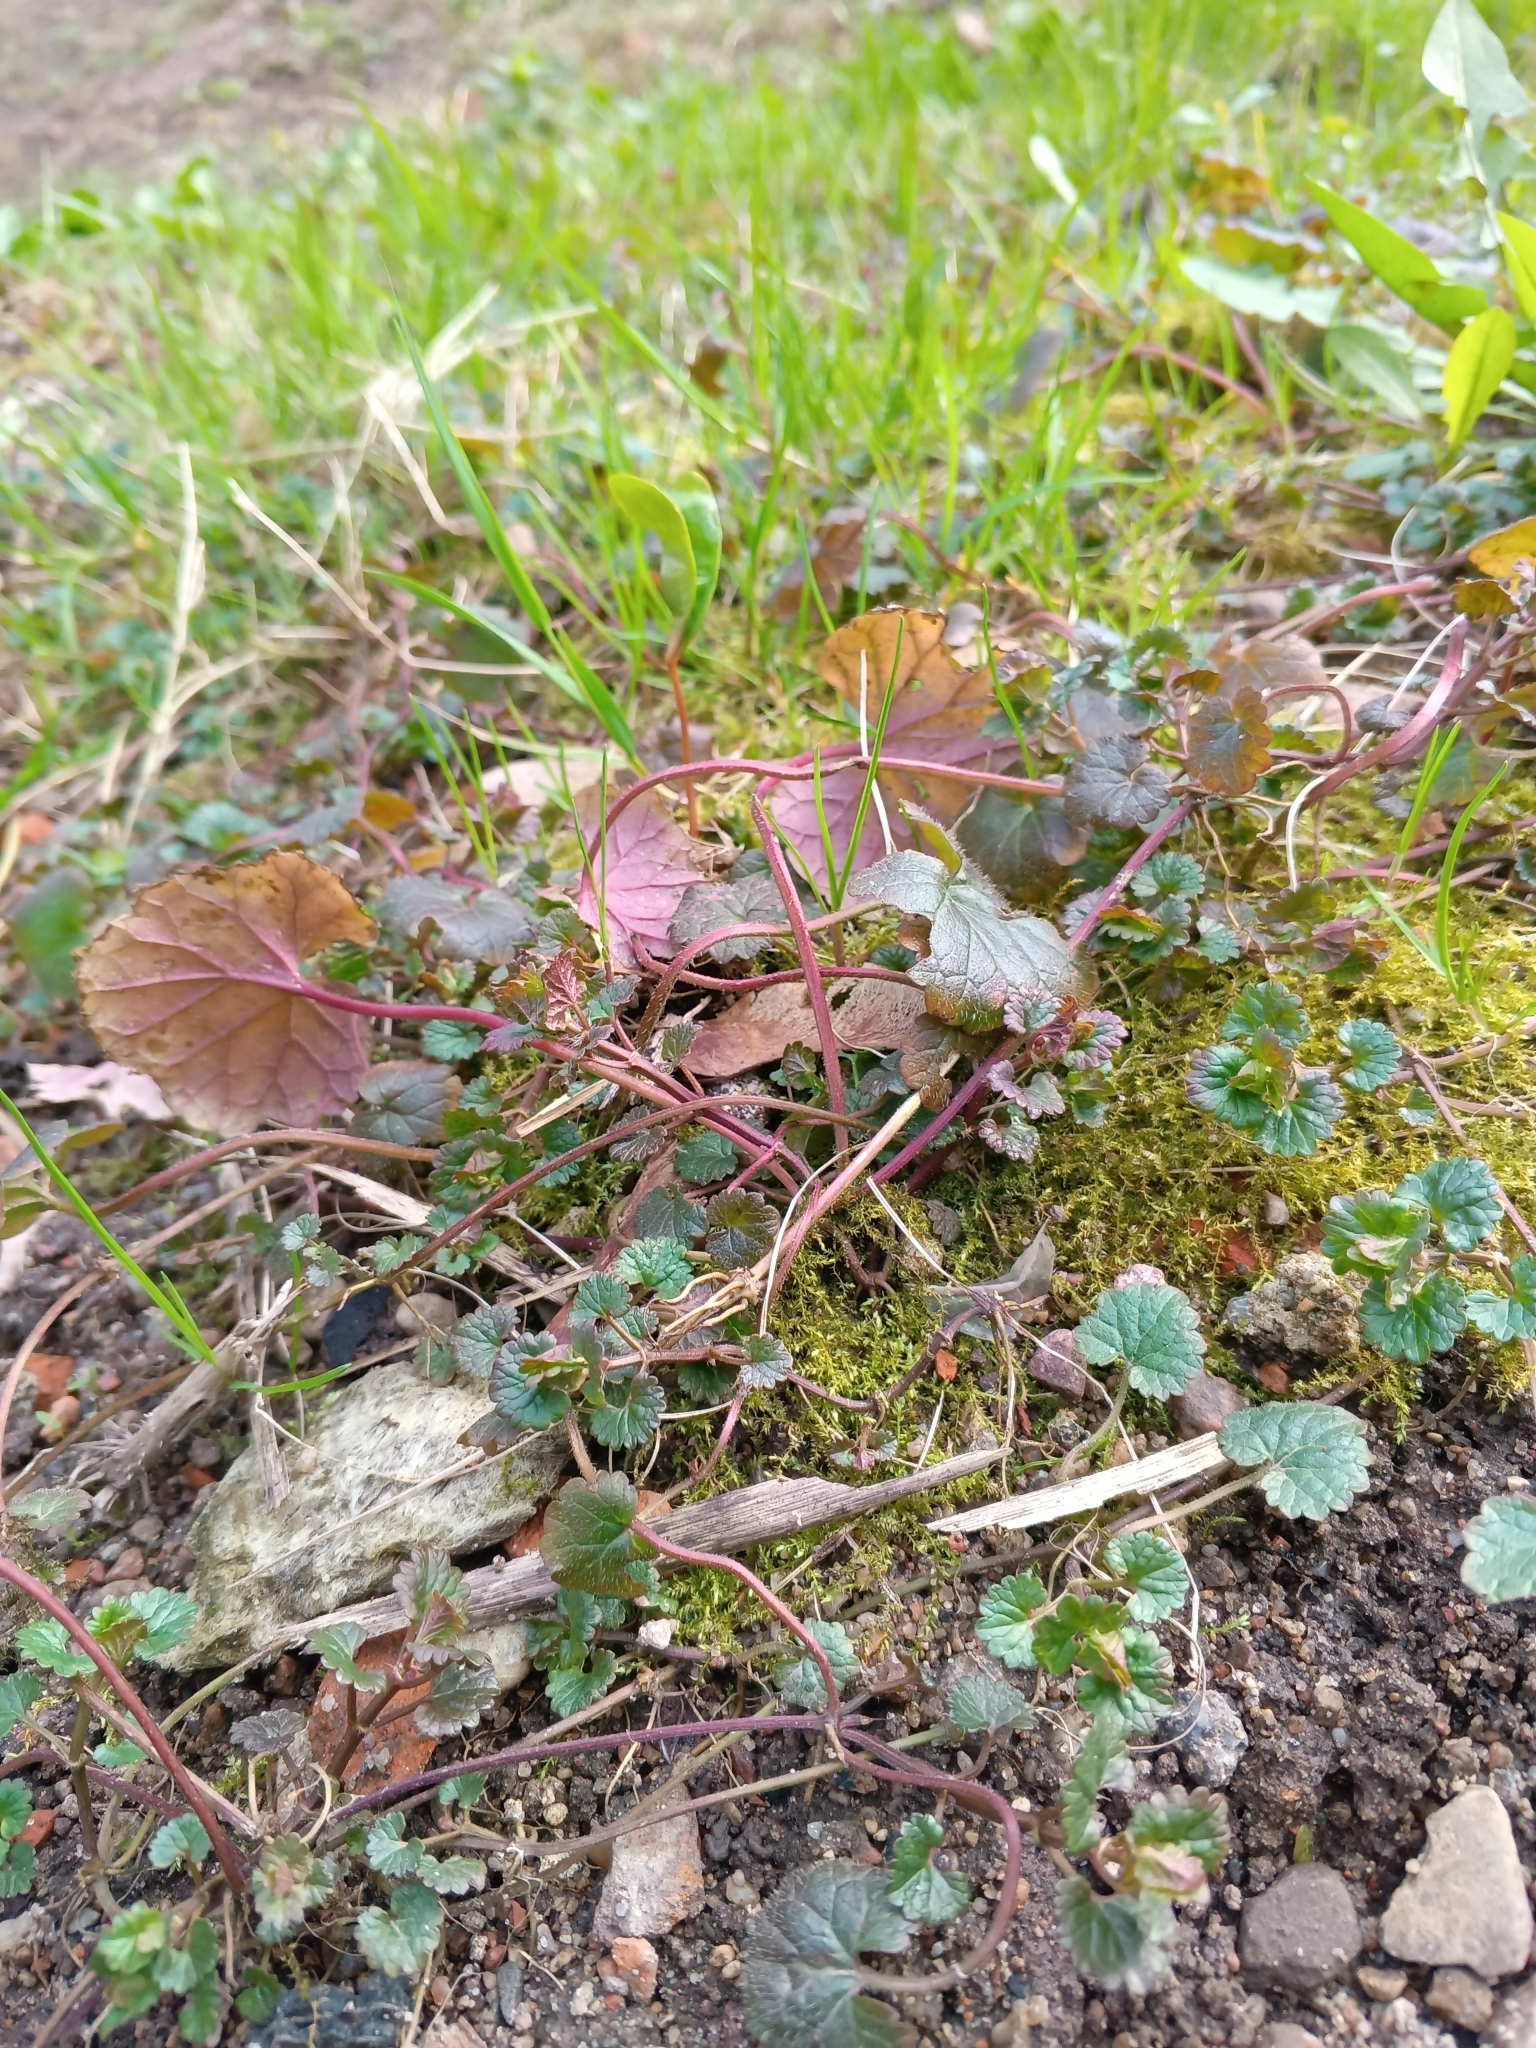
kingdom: Plantae
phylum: Tracheophyta
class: Magnoliopsida
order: Lamiales
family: Lamiaceae
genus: Glechoma
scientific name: Glechoma hederacea
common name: Ground ivy
